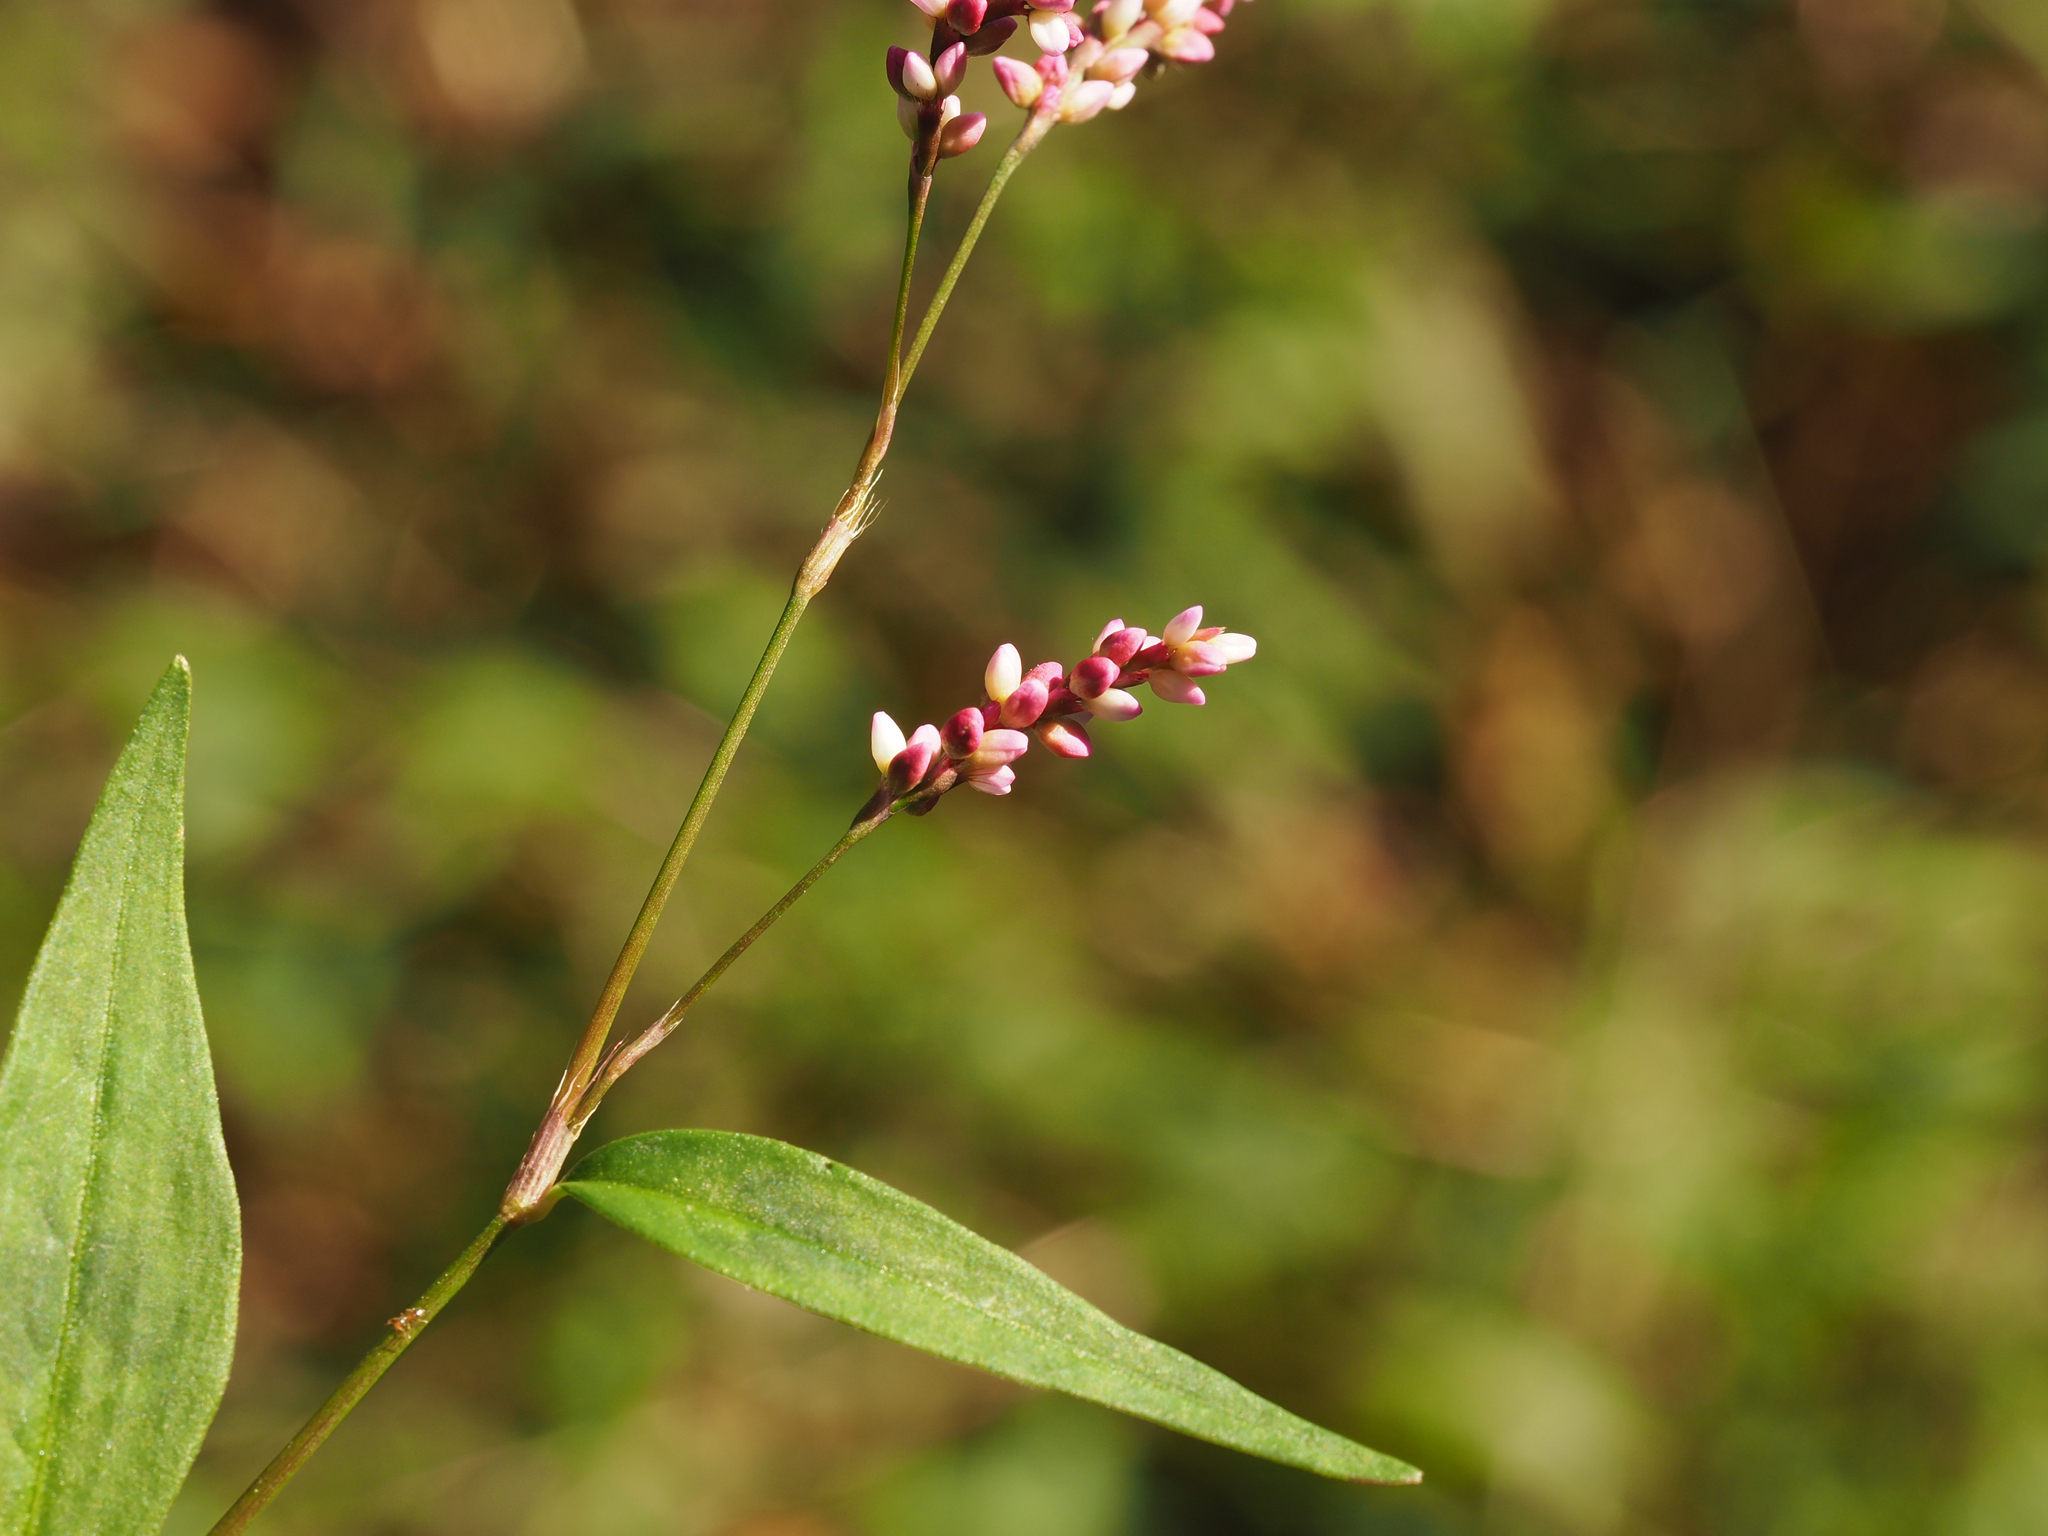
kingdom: Plantae
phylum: Tracheophyta
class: Magnoliopsida
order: Caryophyllales
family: Polygonaceae
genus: Persicaria
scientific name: Persicaria longiseta
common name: Bristly lady's-thumb
